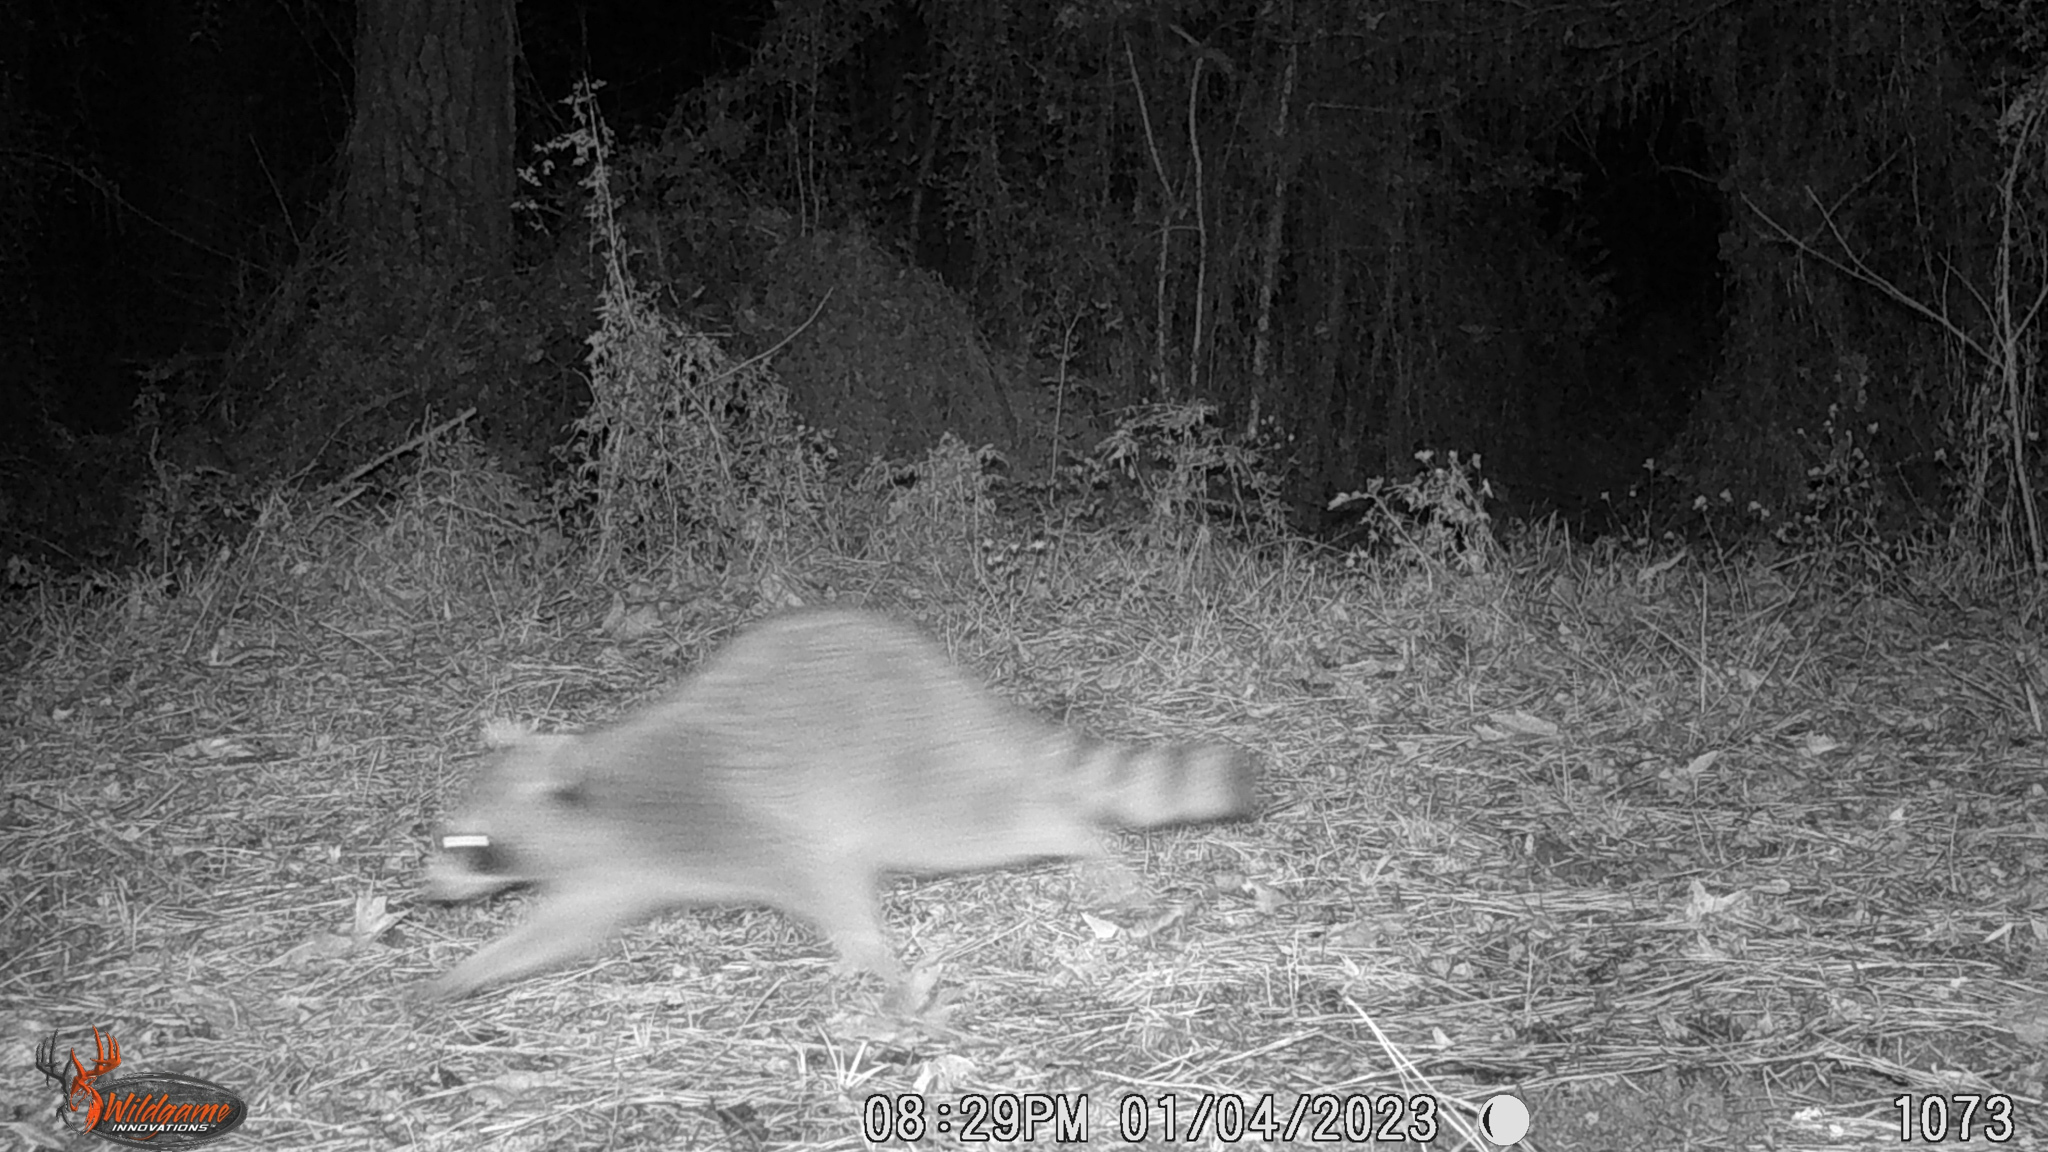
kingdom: Animalia
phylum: Chordata
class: Mammalia
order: Carnivora
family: Procyonidae
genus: Procyon
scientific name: Procyon lotor
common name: Raccoon
